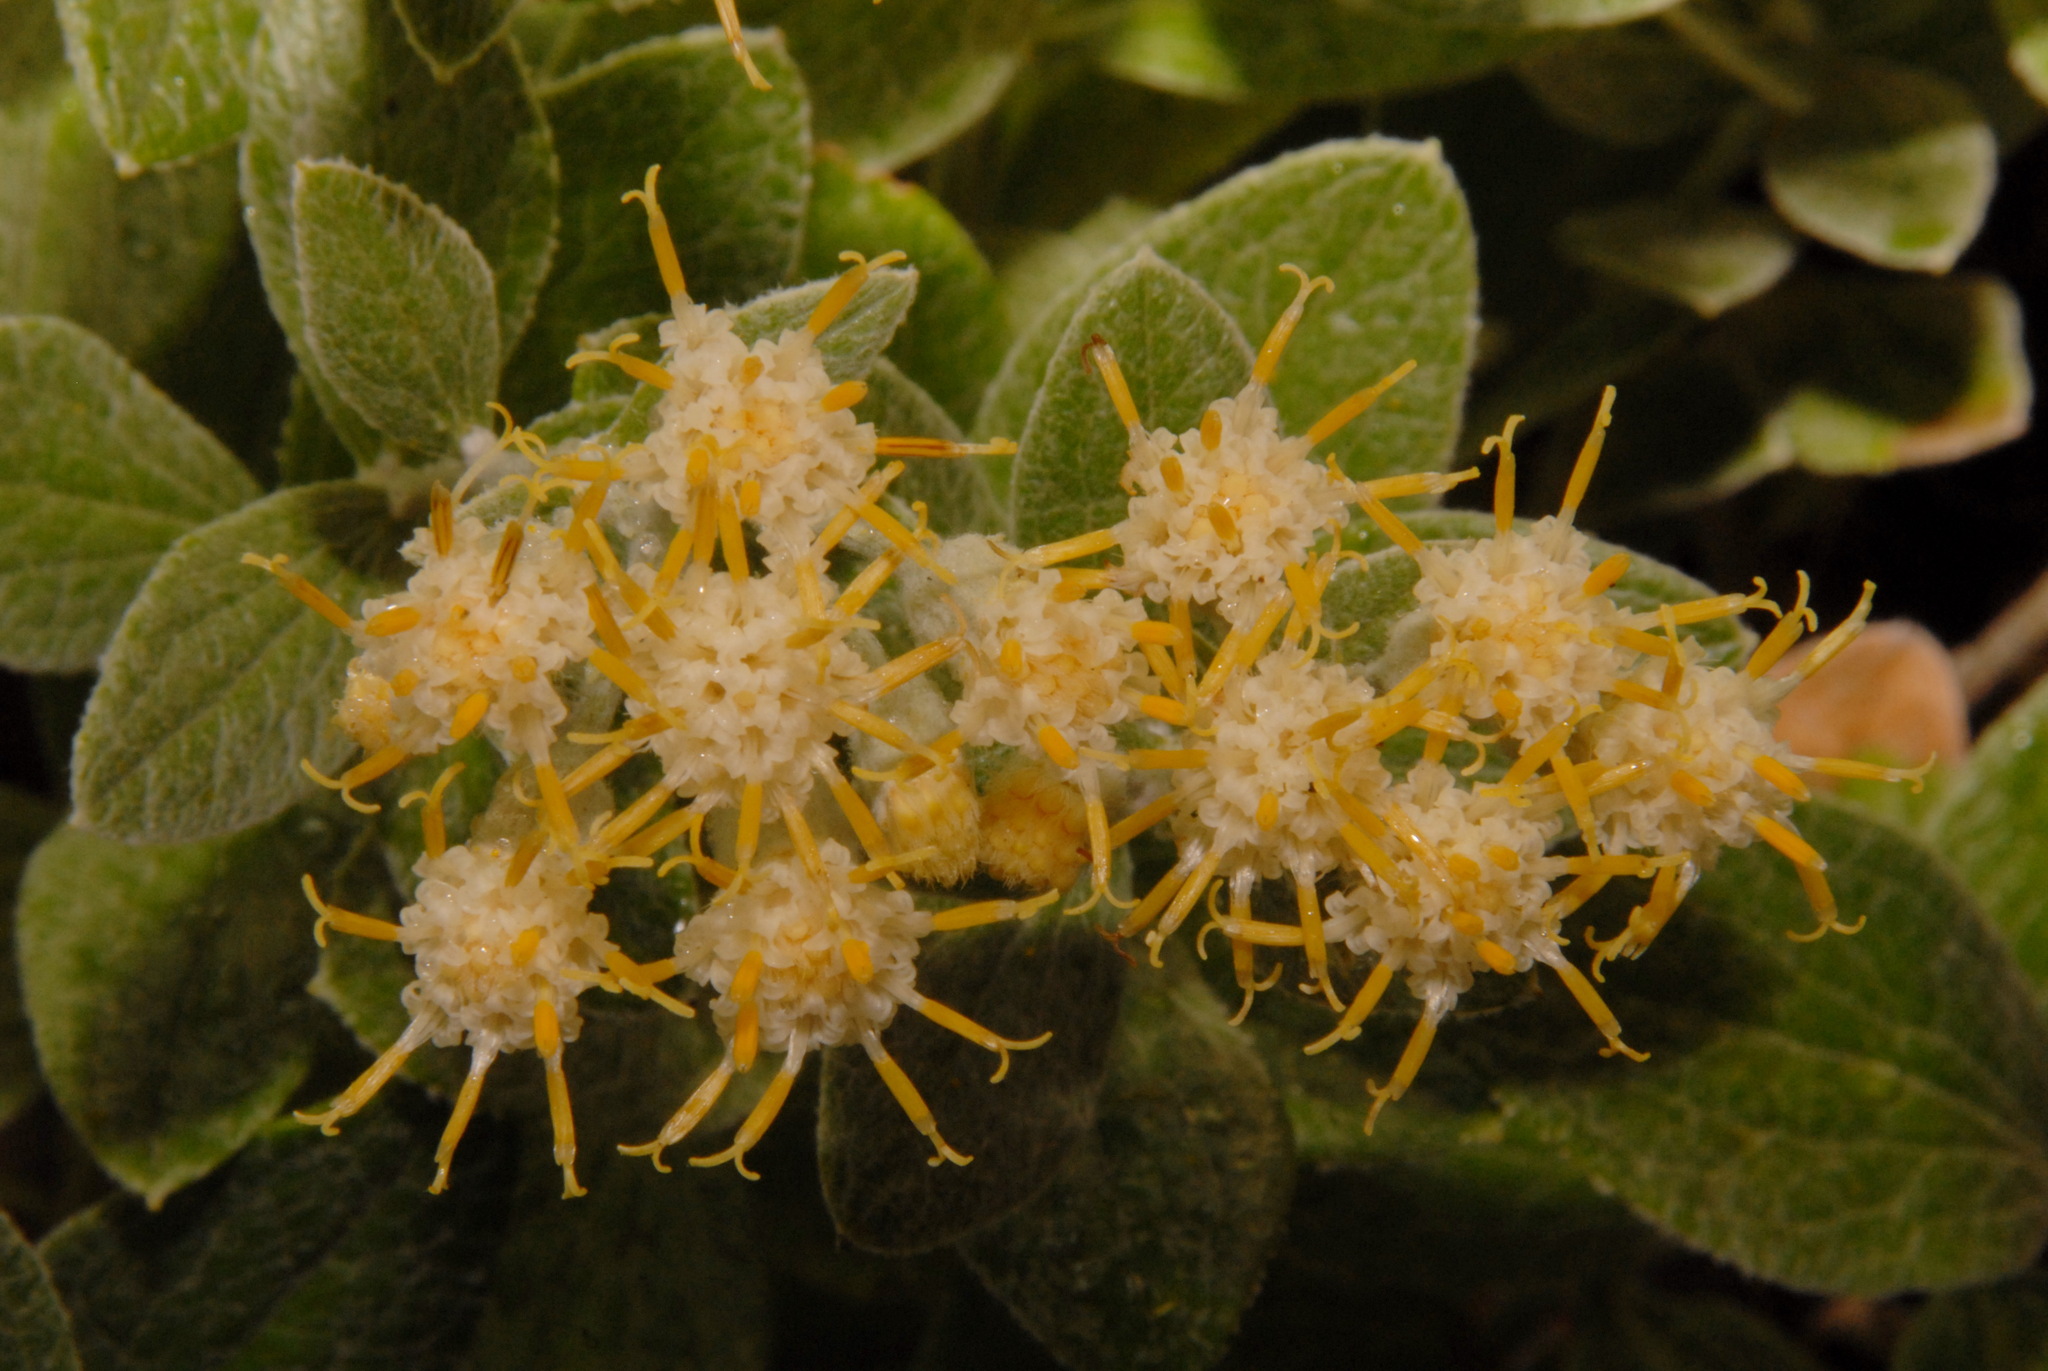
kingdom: Plantae
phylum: Tracheophyta
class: Magnoliopsida
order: Asterales
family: Asteraceae
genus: Luina
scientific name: Luina hypoleuca
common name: Little-leaved luina
